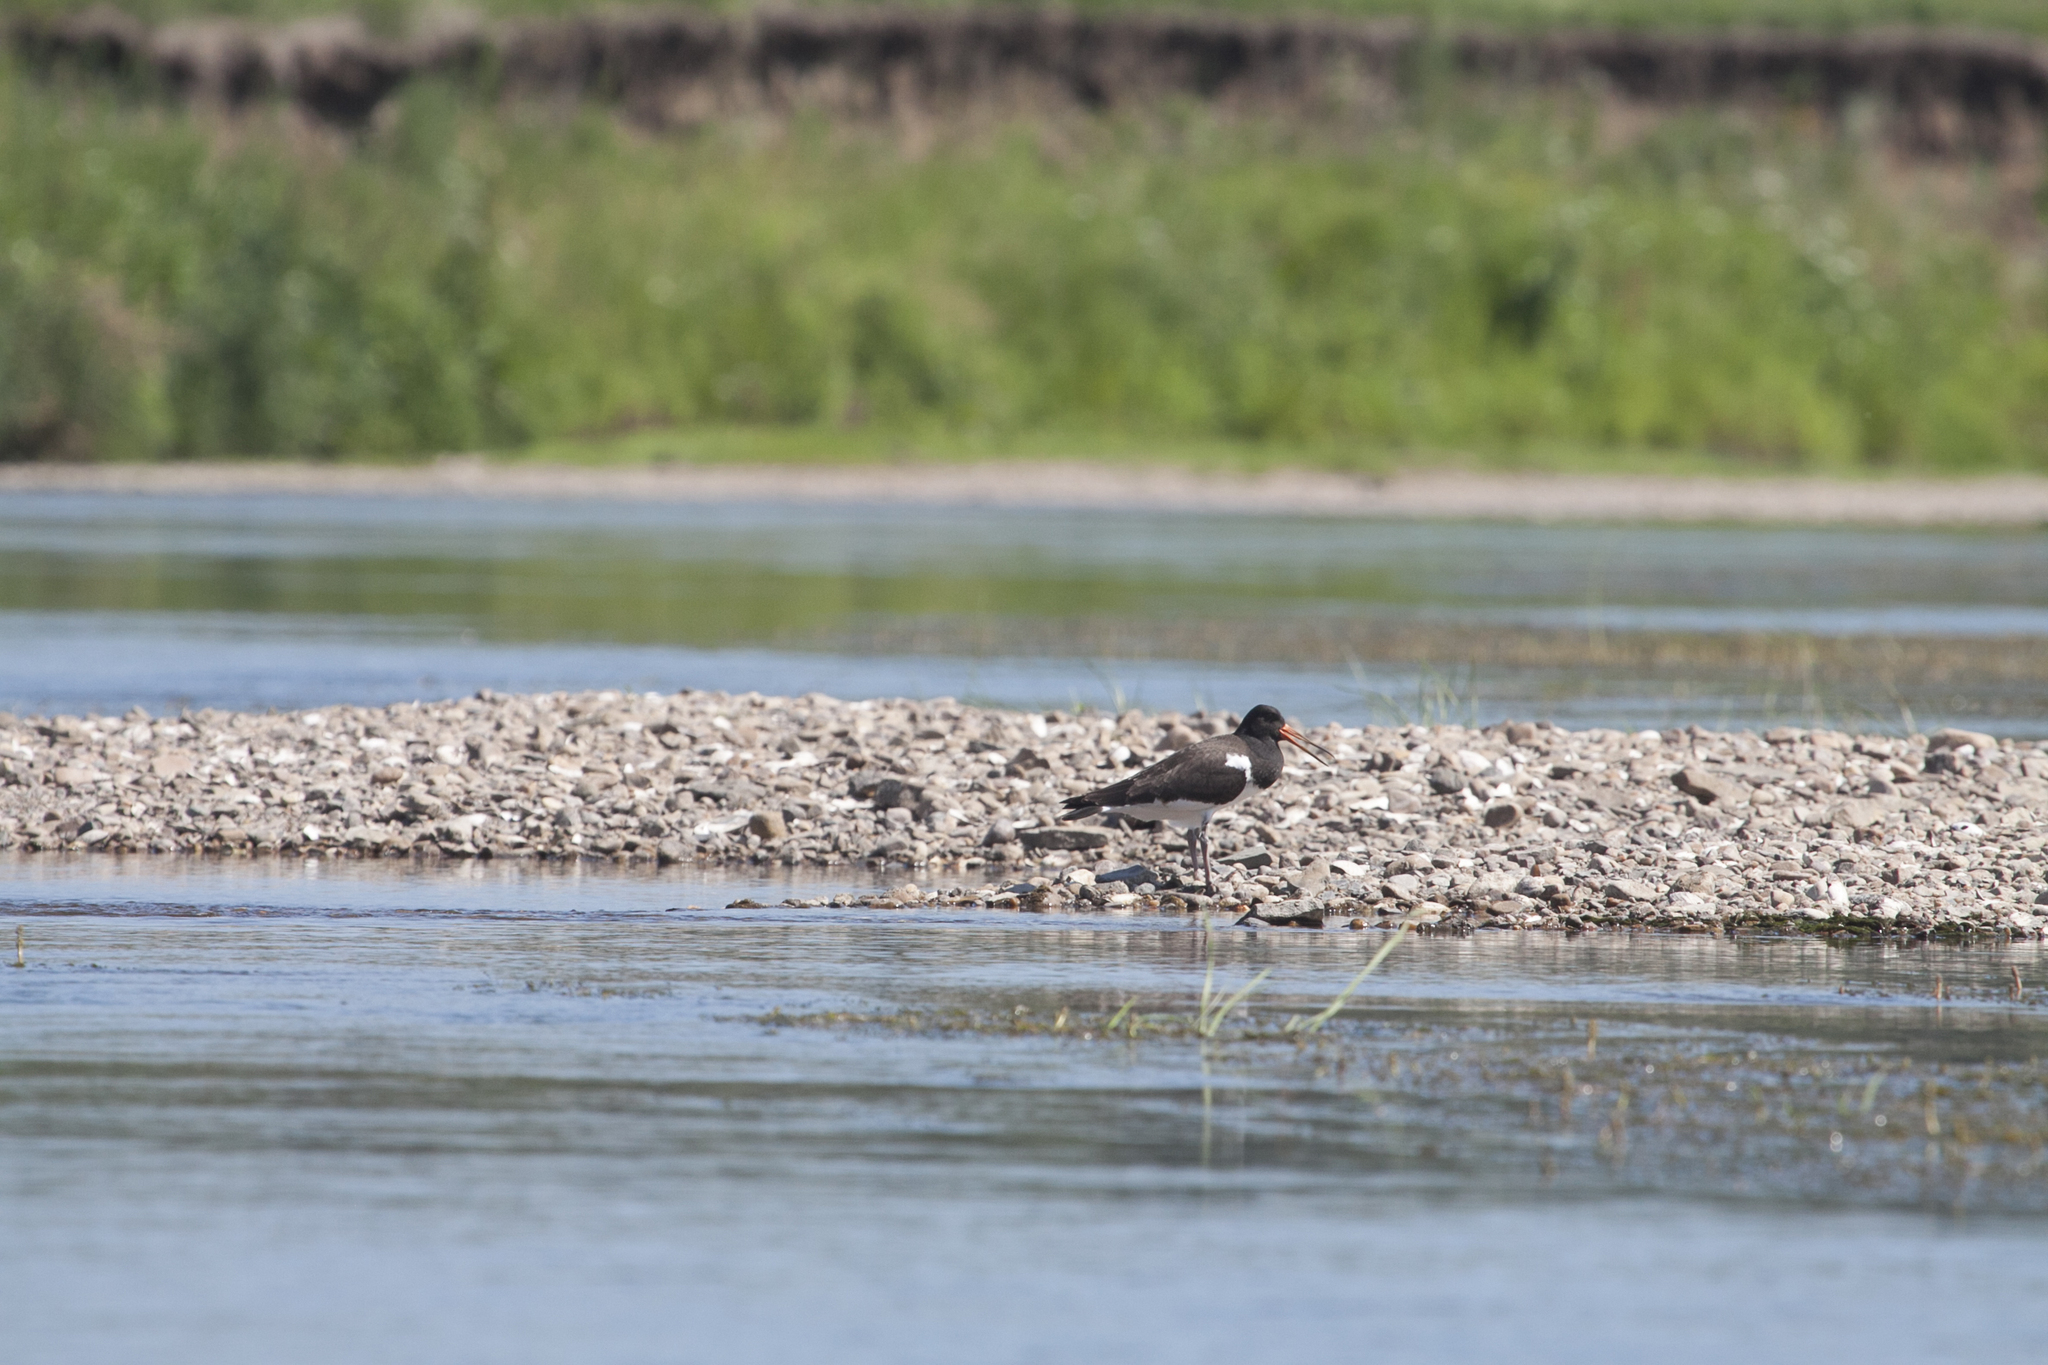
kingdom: Animalia
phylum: Chordata
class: Aves
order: Charadriiformes
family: Haematopodidae
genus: Haematopus
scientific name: Haematopus ostralegus
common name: Eurasian oystercatcher
